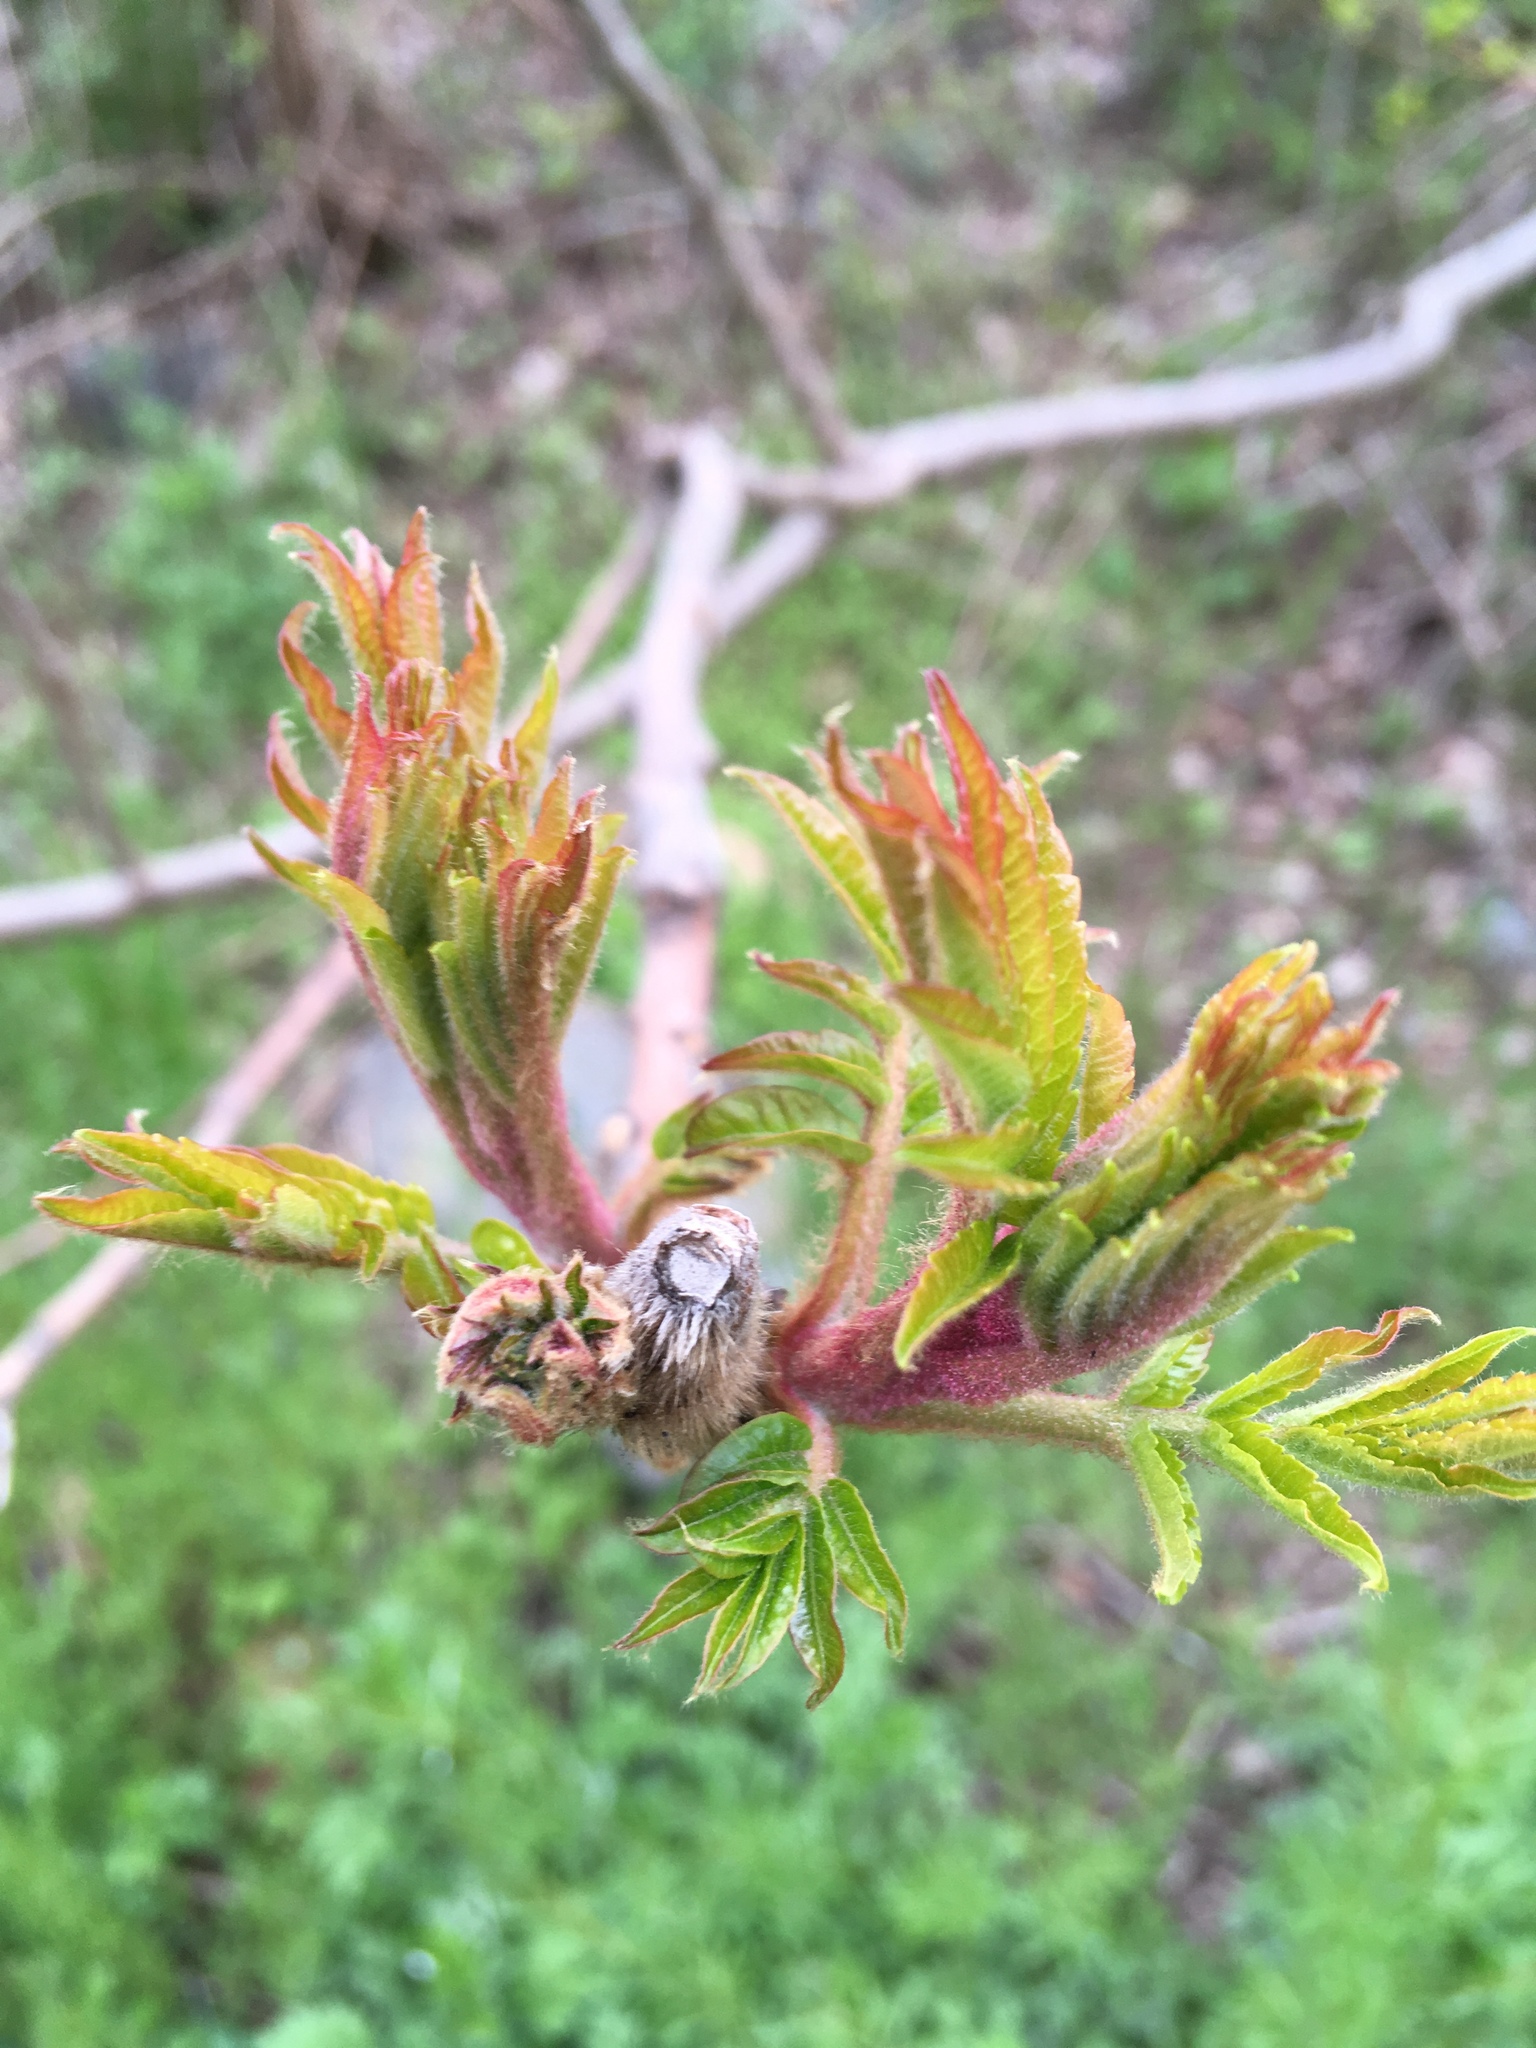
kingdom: Plantae
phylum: Tracheophyta
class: Magnoliopsida
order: Sapindales
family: Anacardiaceae
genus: Rhus
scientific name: Rhus typhina
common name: Staghorn sumac
